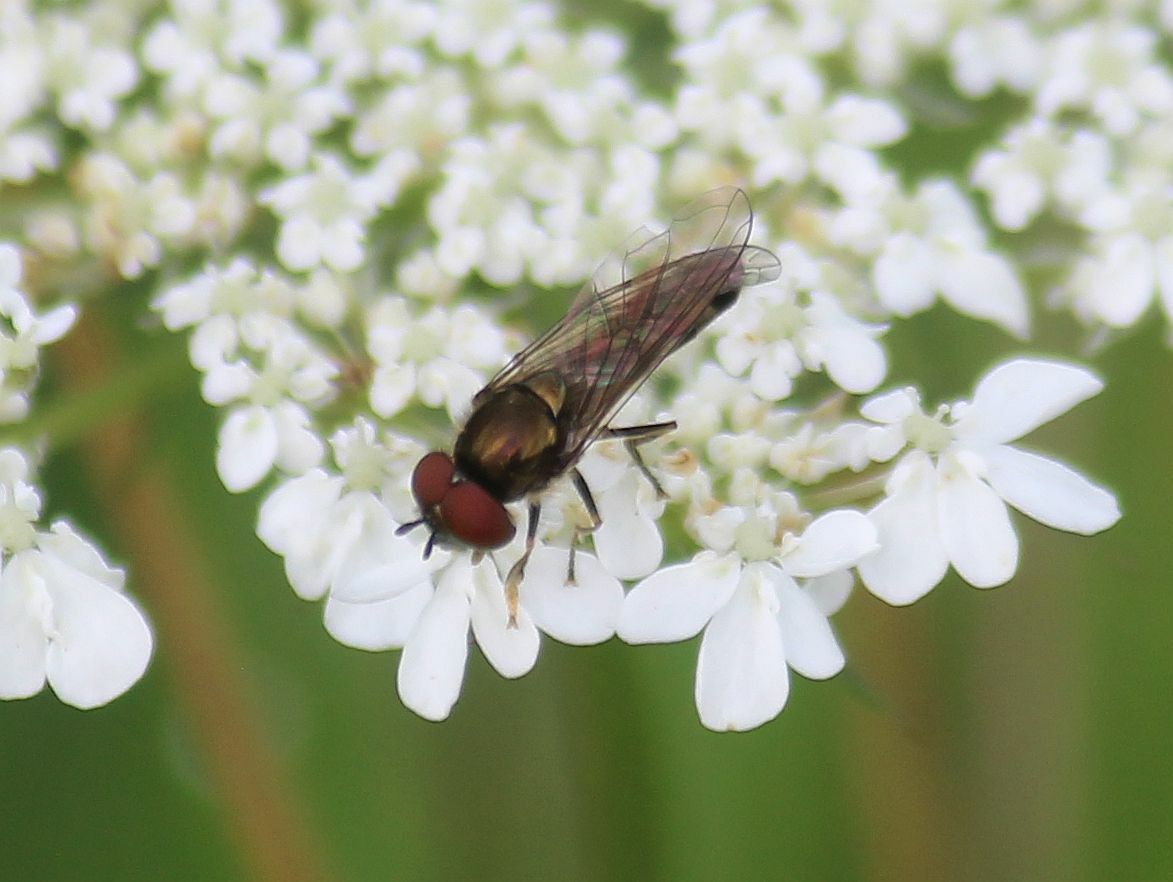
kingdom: Animalia
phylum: Arthropoda
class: Insecta
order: Diptera
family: Syrphidae
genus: Platycheirus
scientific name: Platycheirus albimanus
